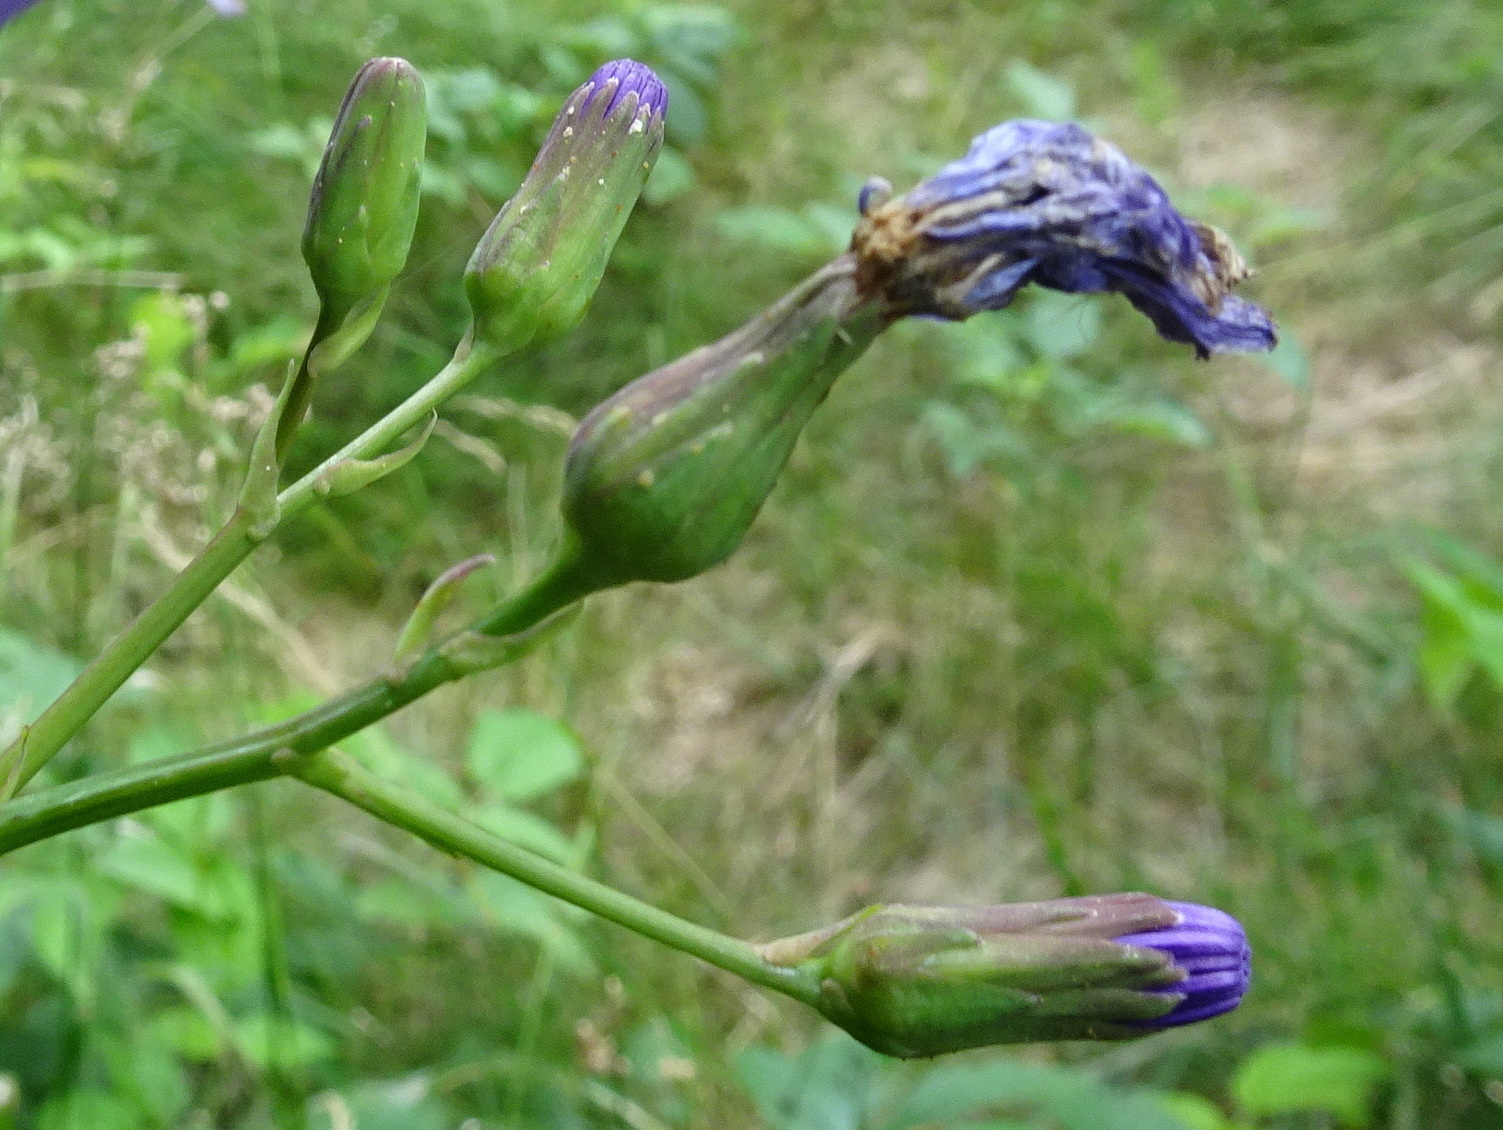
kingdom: Plantae
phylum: Tracheophyta
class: Magnoliopsida
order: Asterales
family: Asteraceae
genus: Lactuca
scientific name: Lactuca plumieri
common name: Hairless blue-sow-thistle
